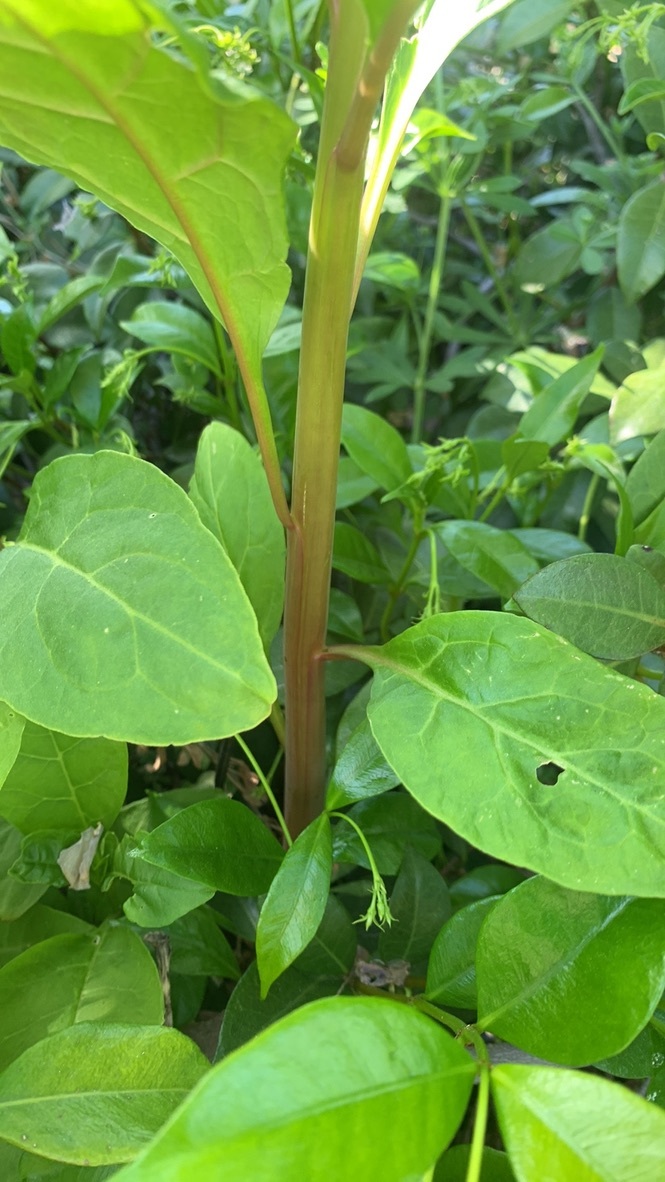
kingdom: Plantae
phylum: Tracheophyta
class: Magnoliopsida
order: Caryophyllales
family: Phytolaccaceae
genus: Phytolacca
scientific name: Phytolacca americana
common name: American pokeweed
